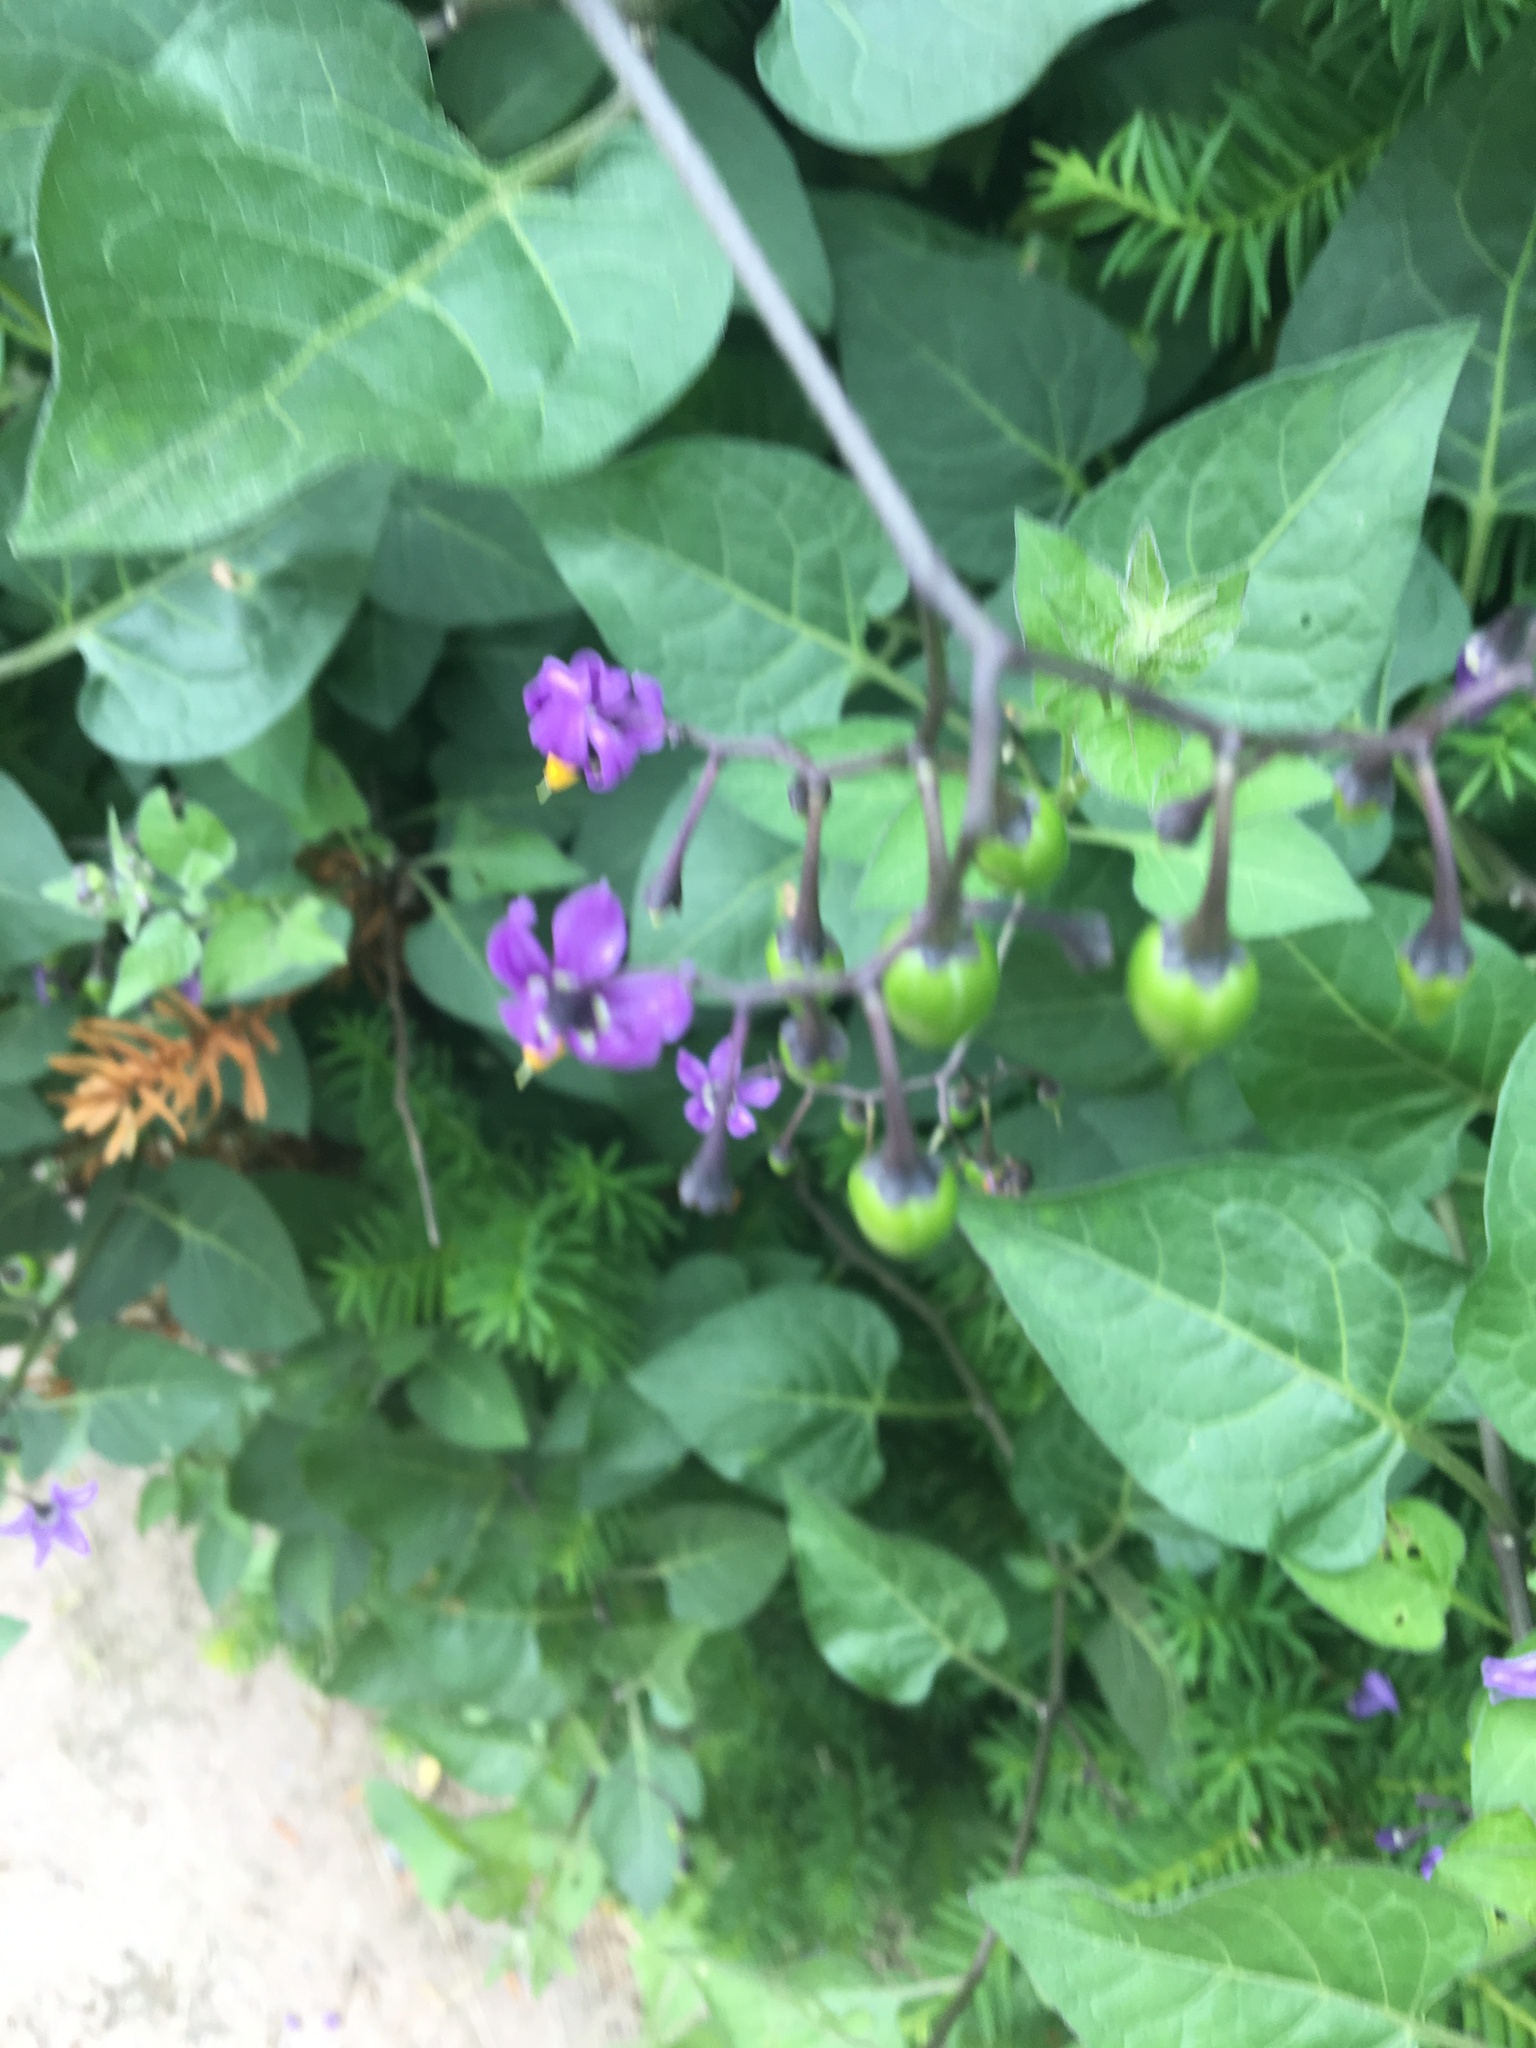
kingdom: Plantae
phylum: Tracheophyta
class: Magnoliopsida
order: Solanales
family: Solanaceae
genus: Solanum
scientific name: Solanum dulcamara
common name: Climbing nightshade
